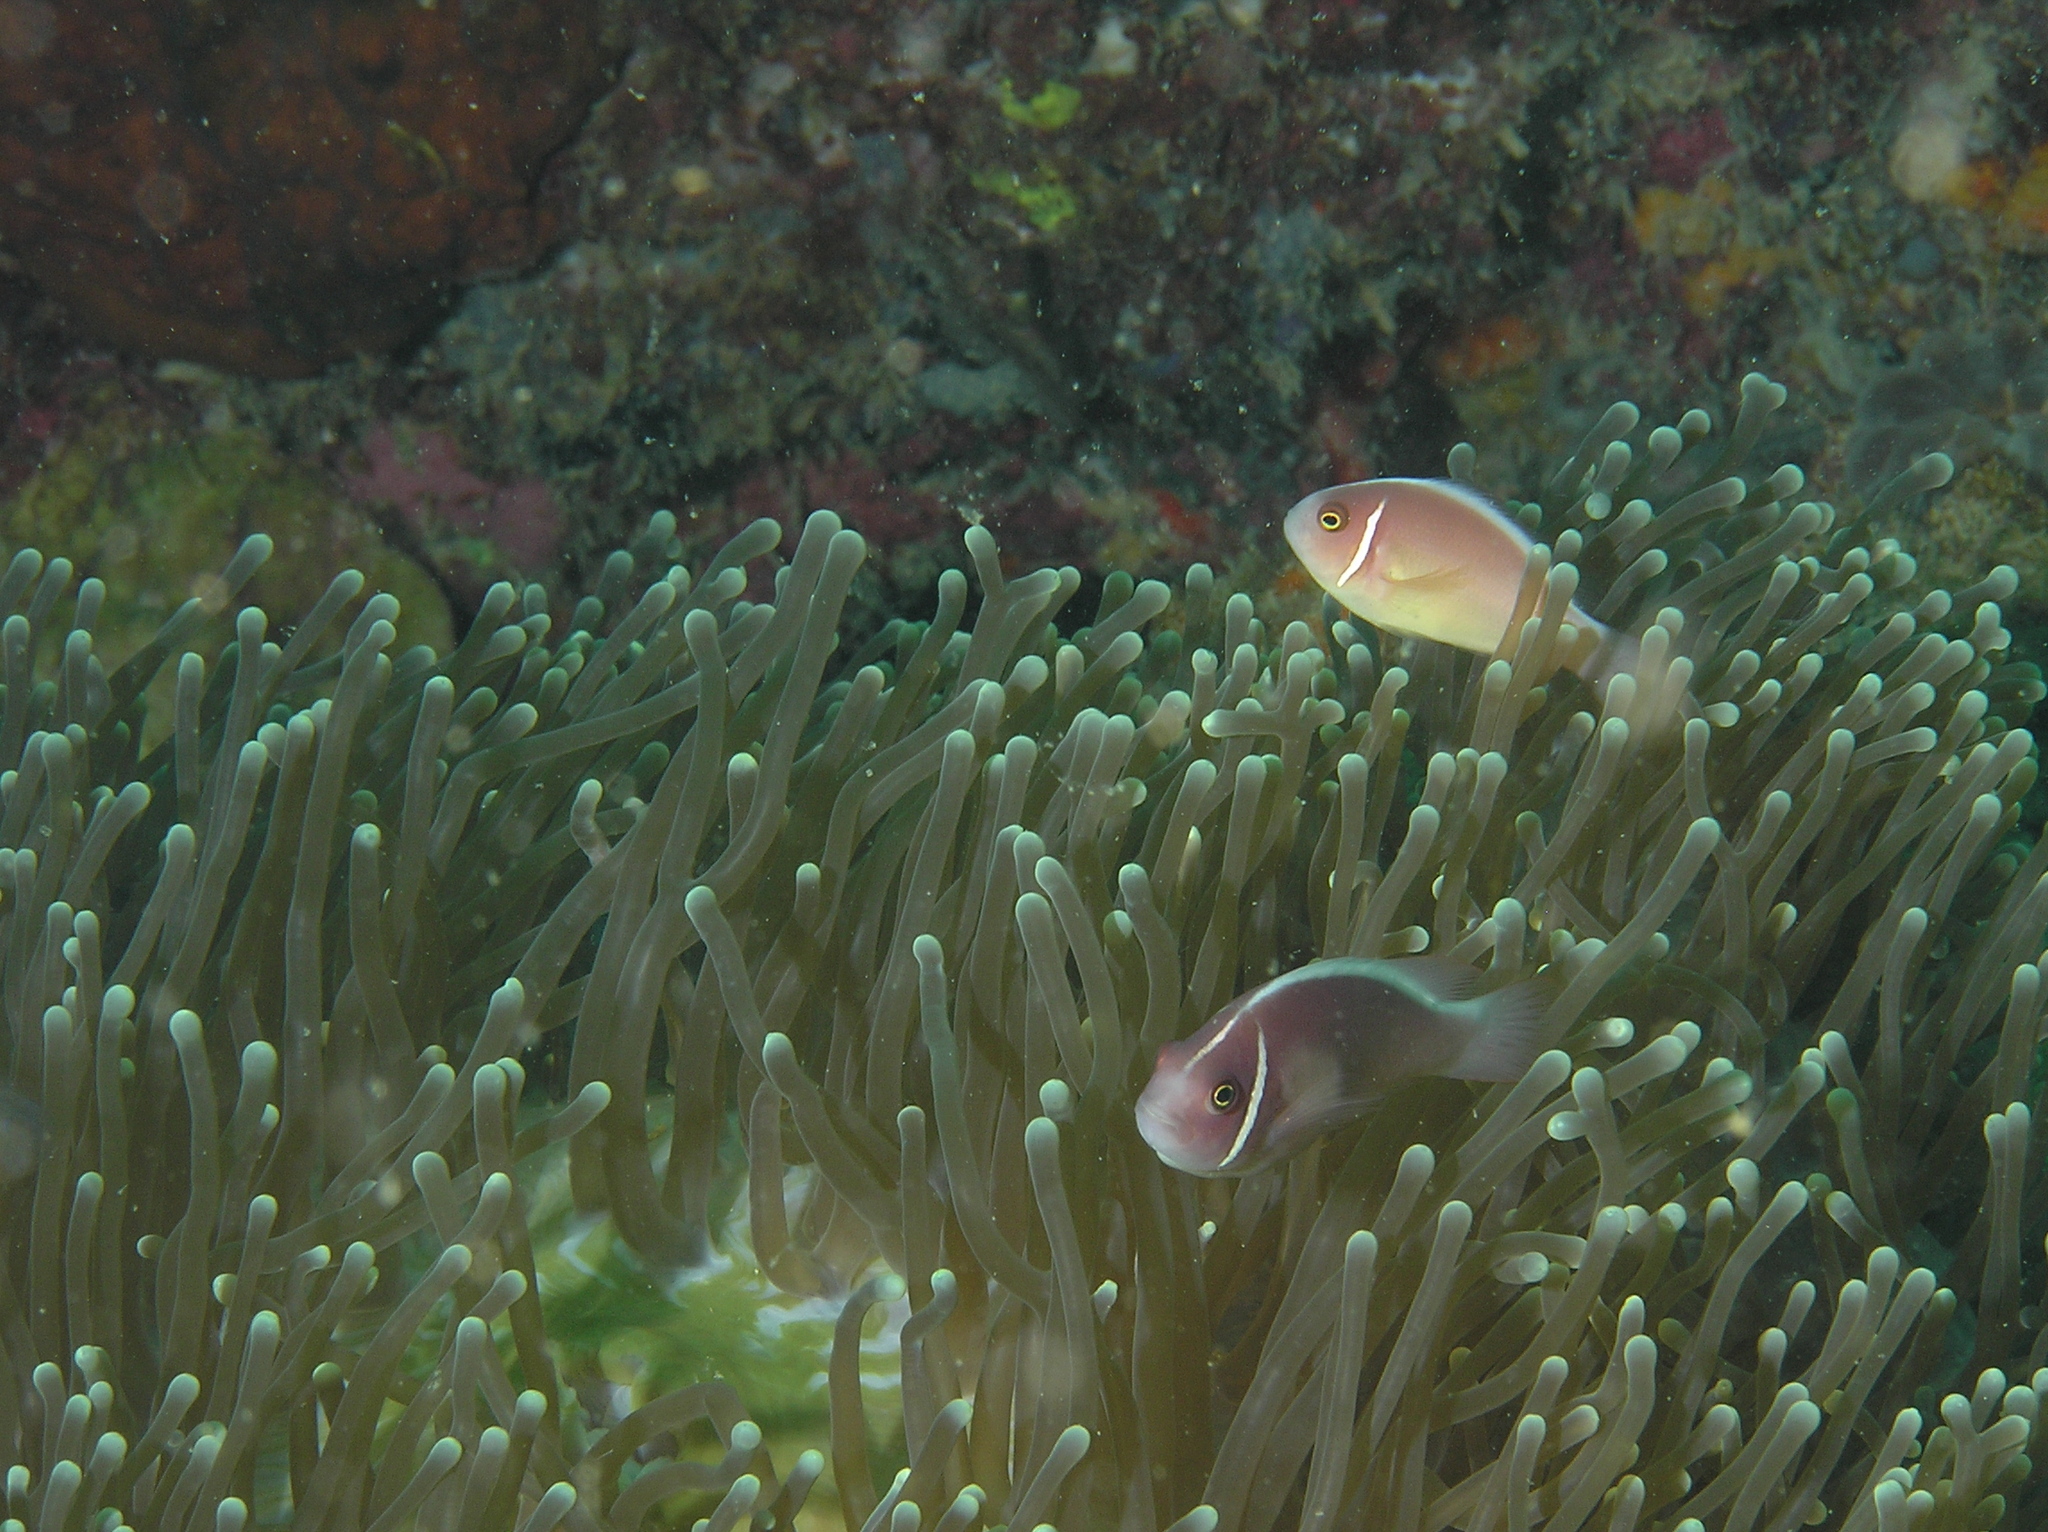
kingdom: Animalia
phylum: Chordata
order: Perciformes
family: Pomacentridae
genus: Amphiprion
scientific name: Amphiprion perideraion
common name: Pink anemonefish
